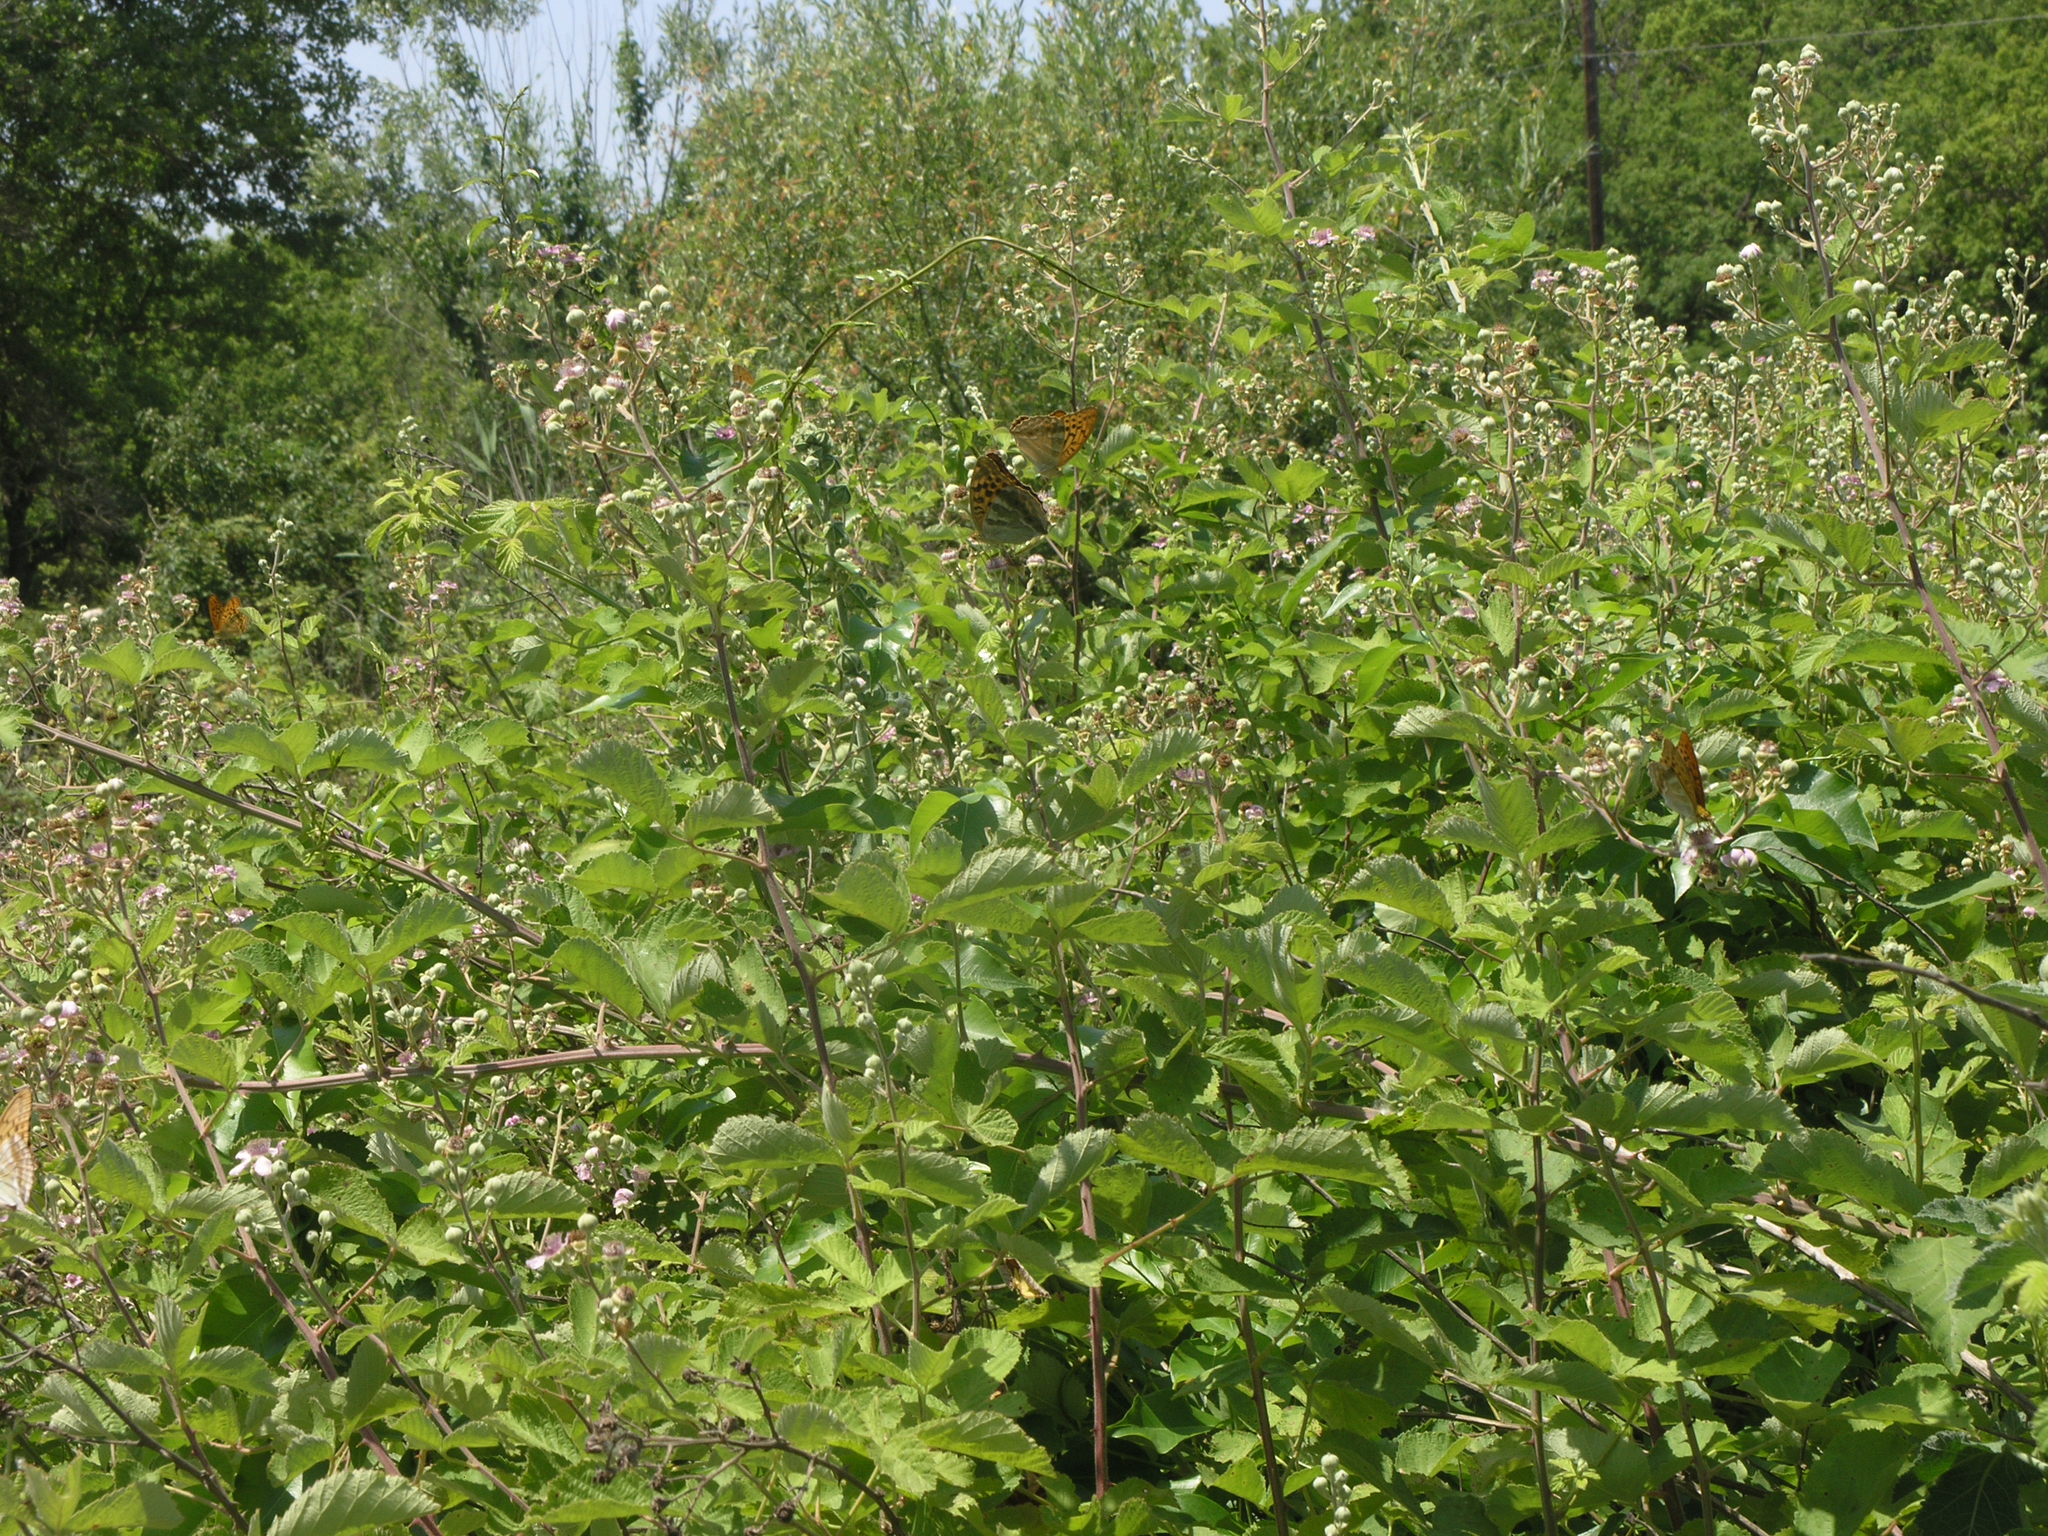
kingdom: Plantae
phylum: Tracheophyta
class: Magnoliopsida
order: Rosales
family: Rosaceae
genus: Rubus
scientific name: Rubus sanctus
